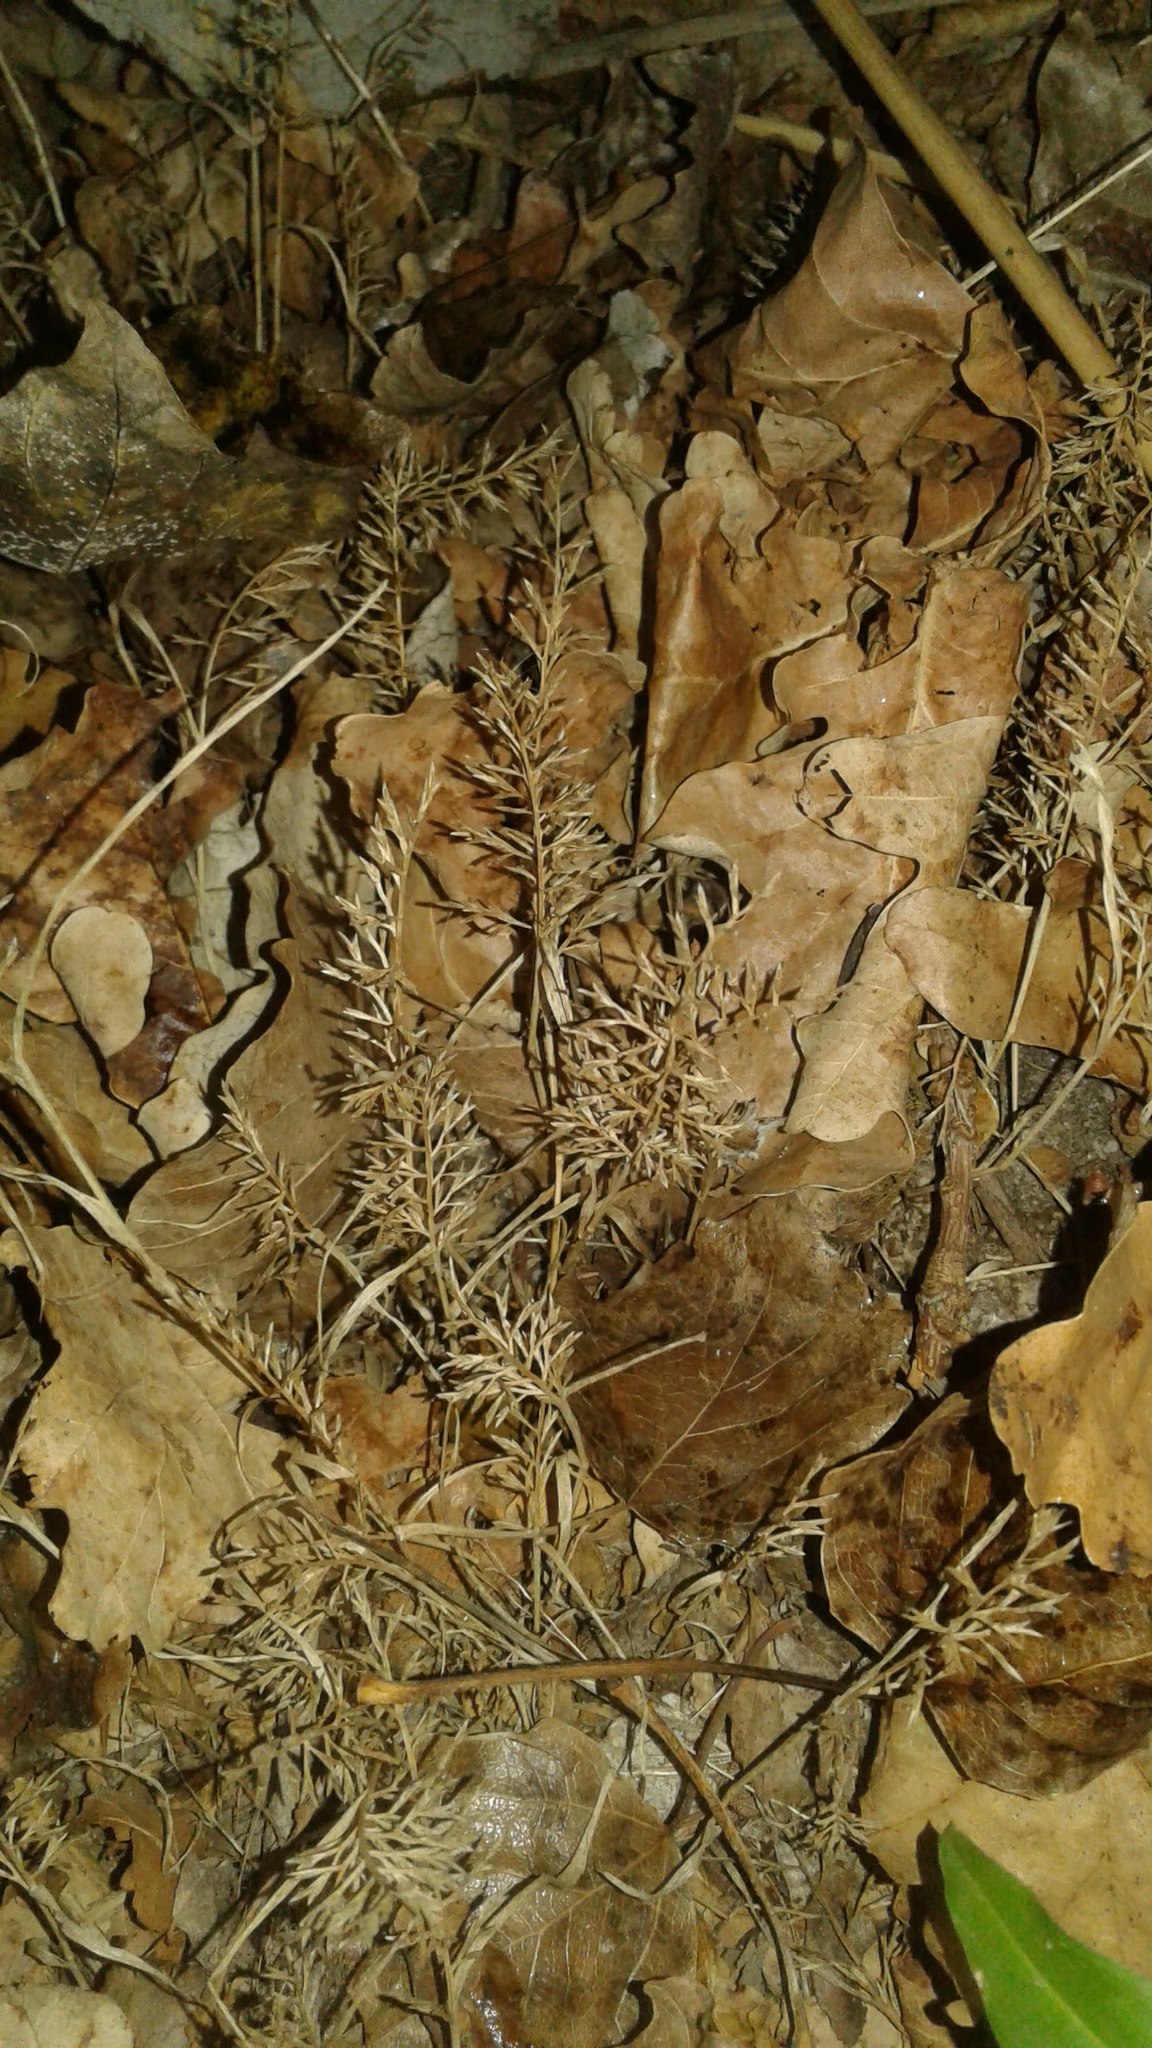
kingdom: Plantae
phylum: Tracheophyta
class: Liliopsida
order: Poales
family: Poaceae
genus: Catapodium
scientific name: Catapodium rigidum
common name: Fern-grass
